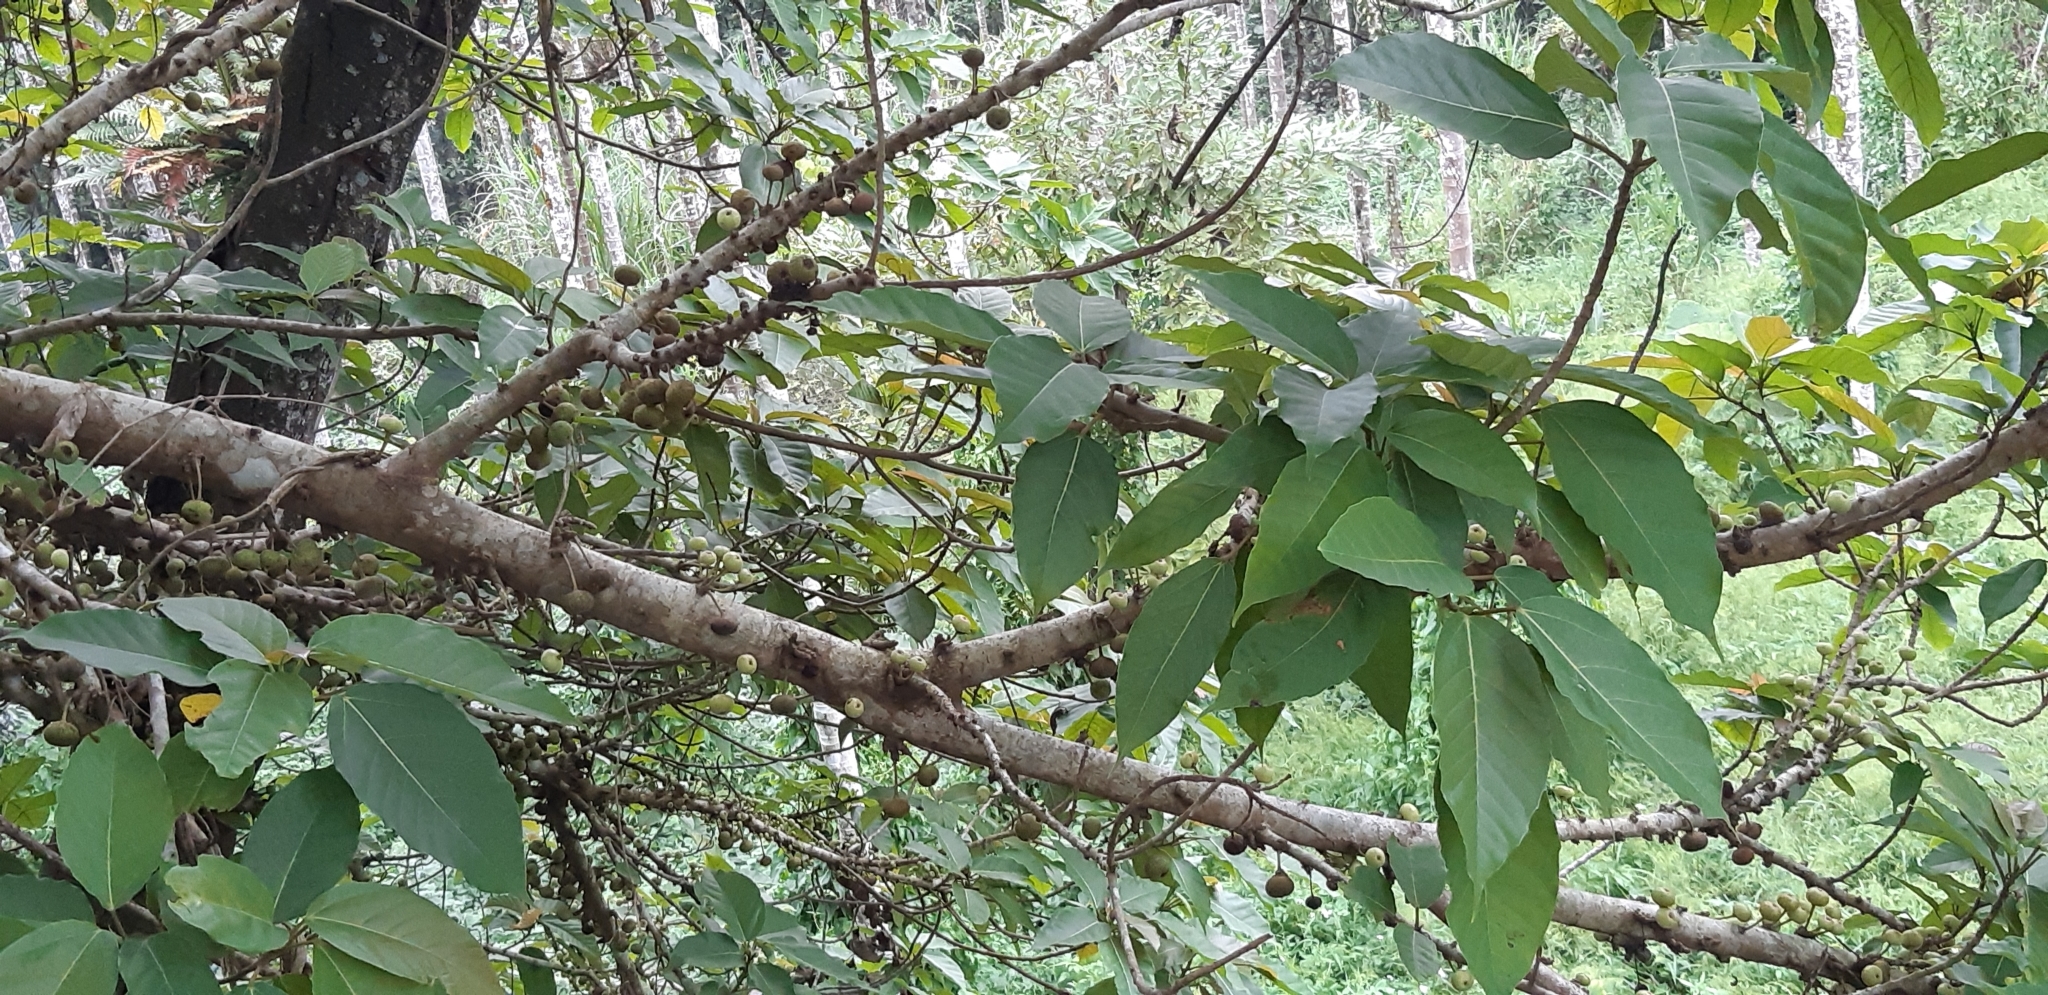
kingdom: Plantae
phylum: Tracheophyta
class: Magnoliopsida
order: Rosales
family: Moraceae
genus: Ficus
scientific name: Ficus variegata
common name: Variegated fig
